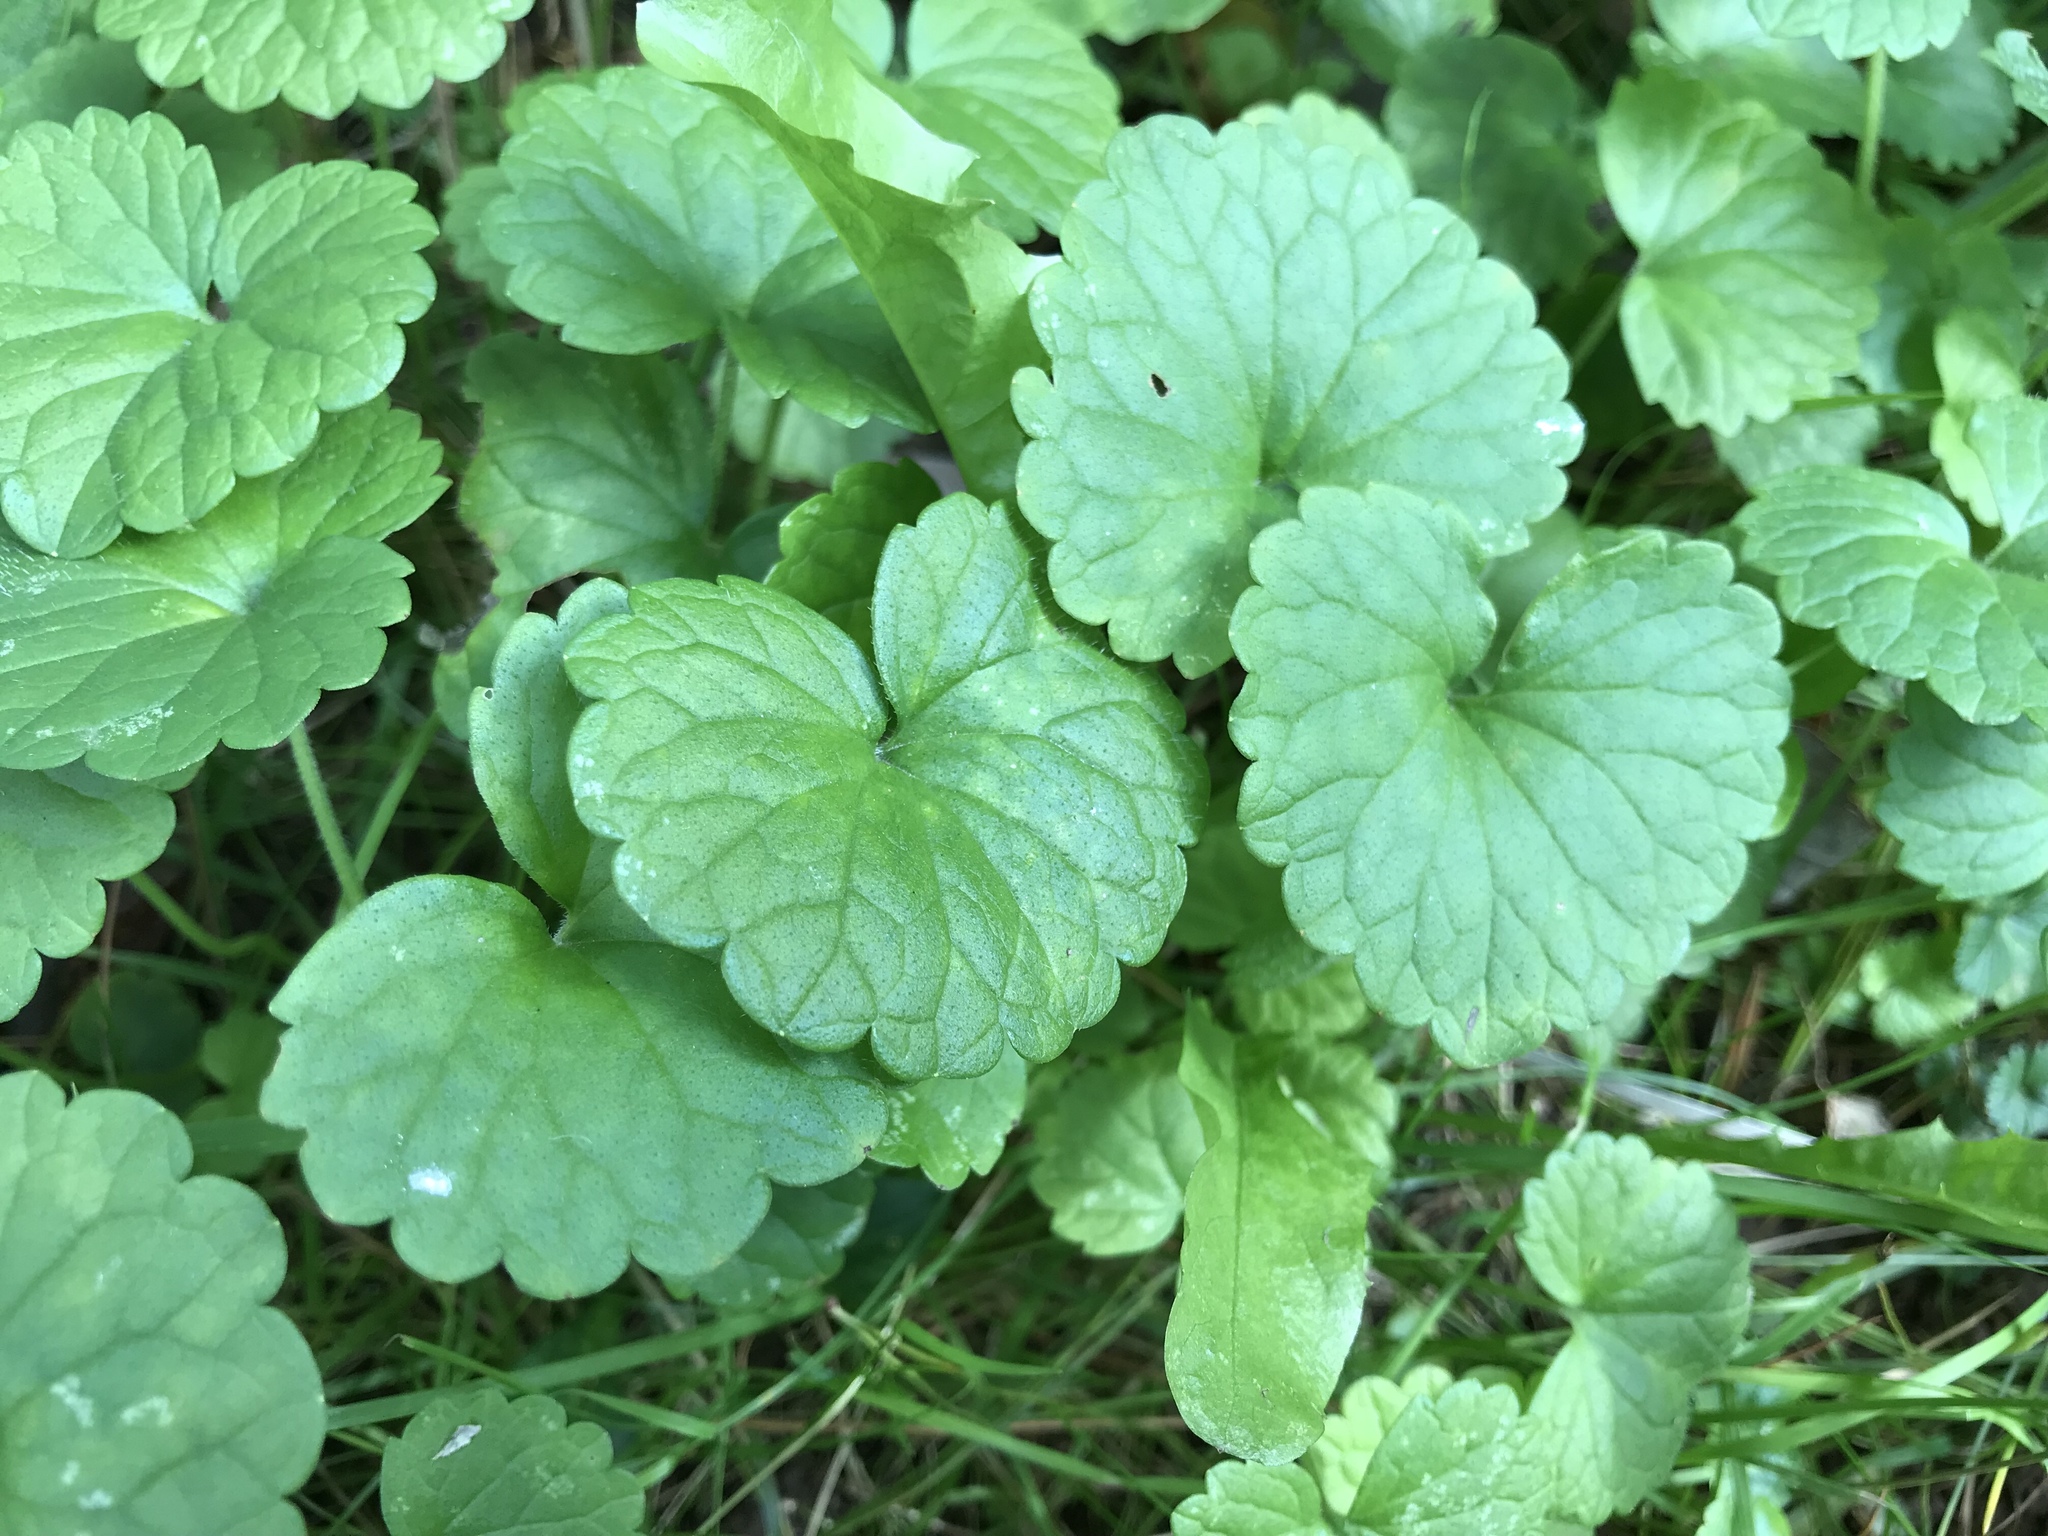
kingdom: Plantae
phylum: Tracheophyta
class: Magnoliopsida
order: Lamiales
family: Lamiaceae
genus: Glechoma
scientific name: Glechoma hederacea
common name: Ground ivy
